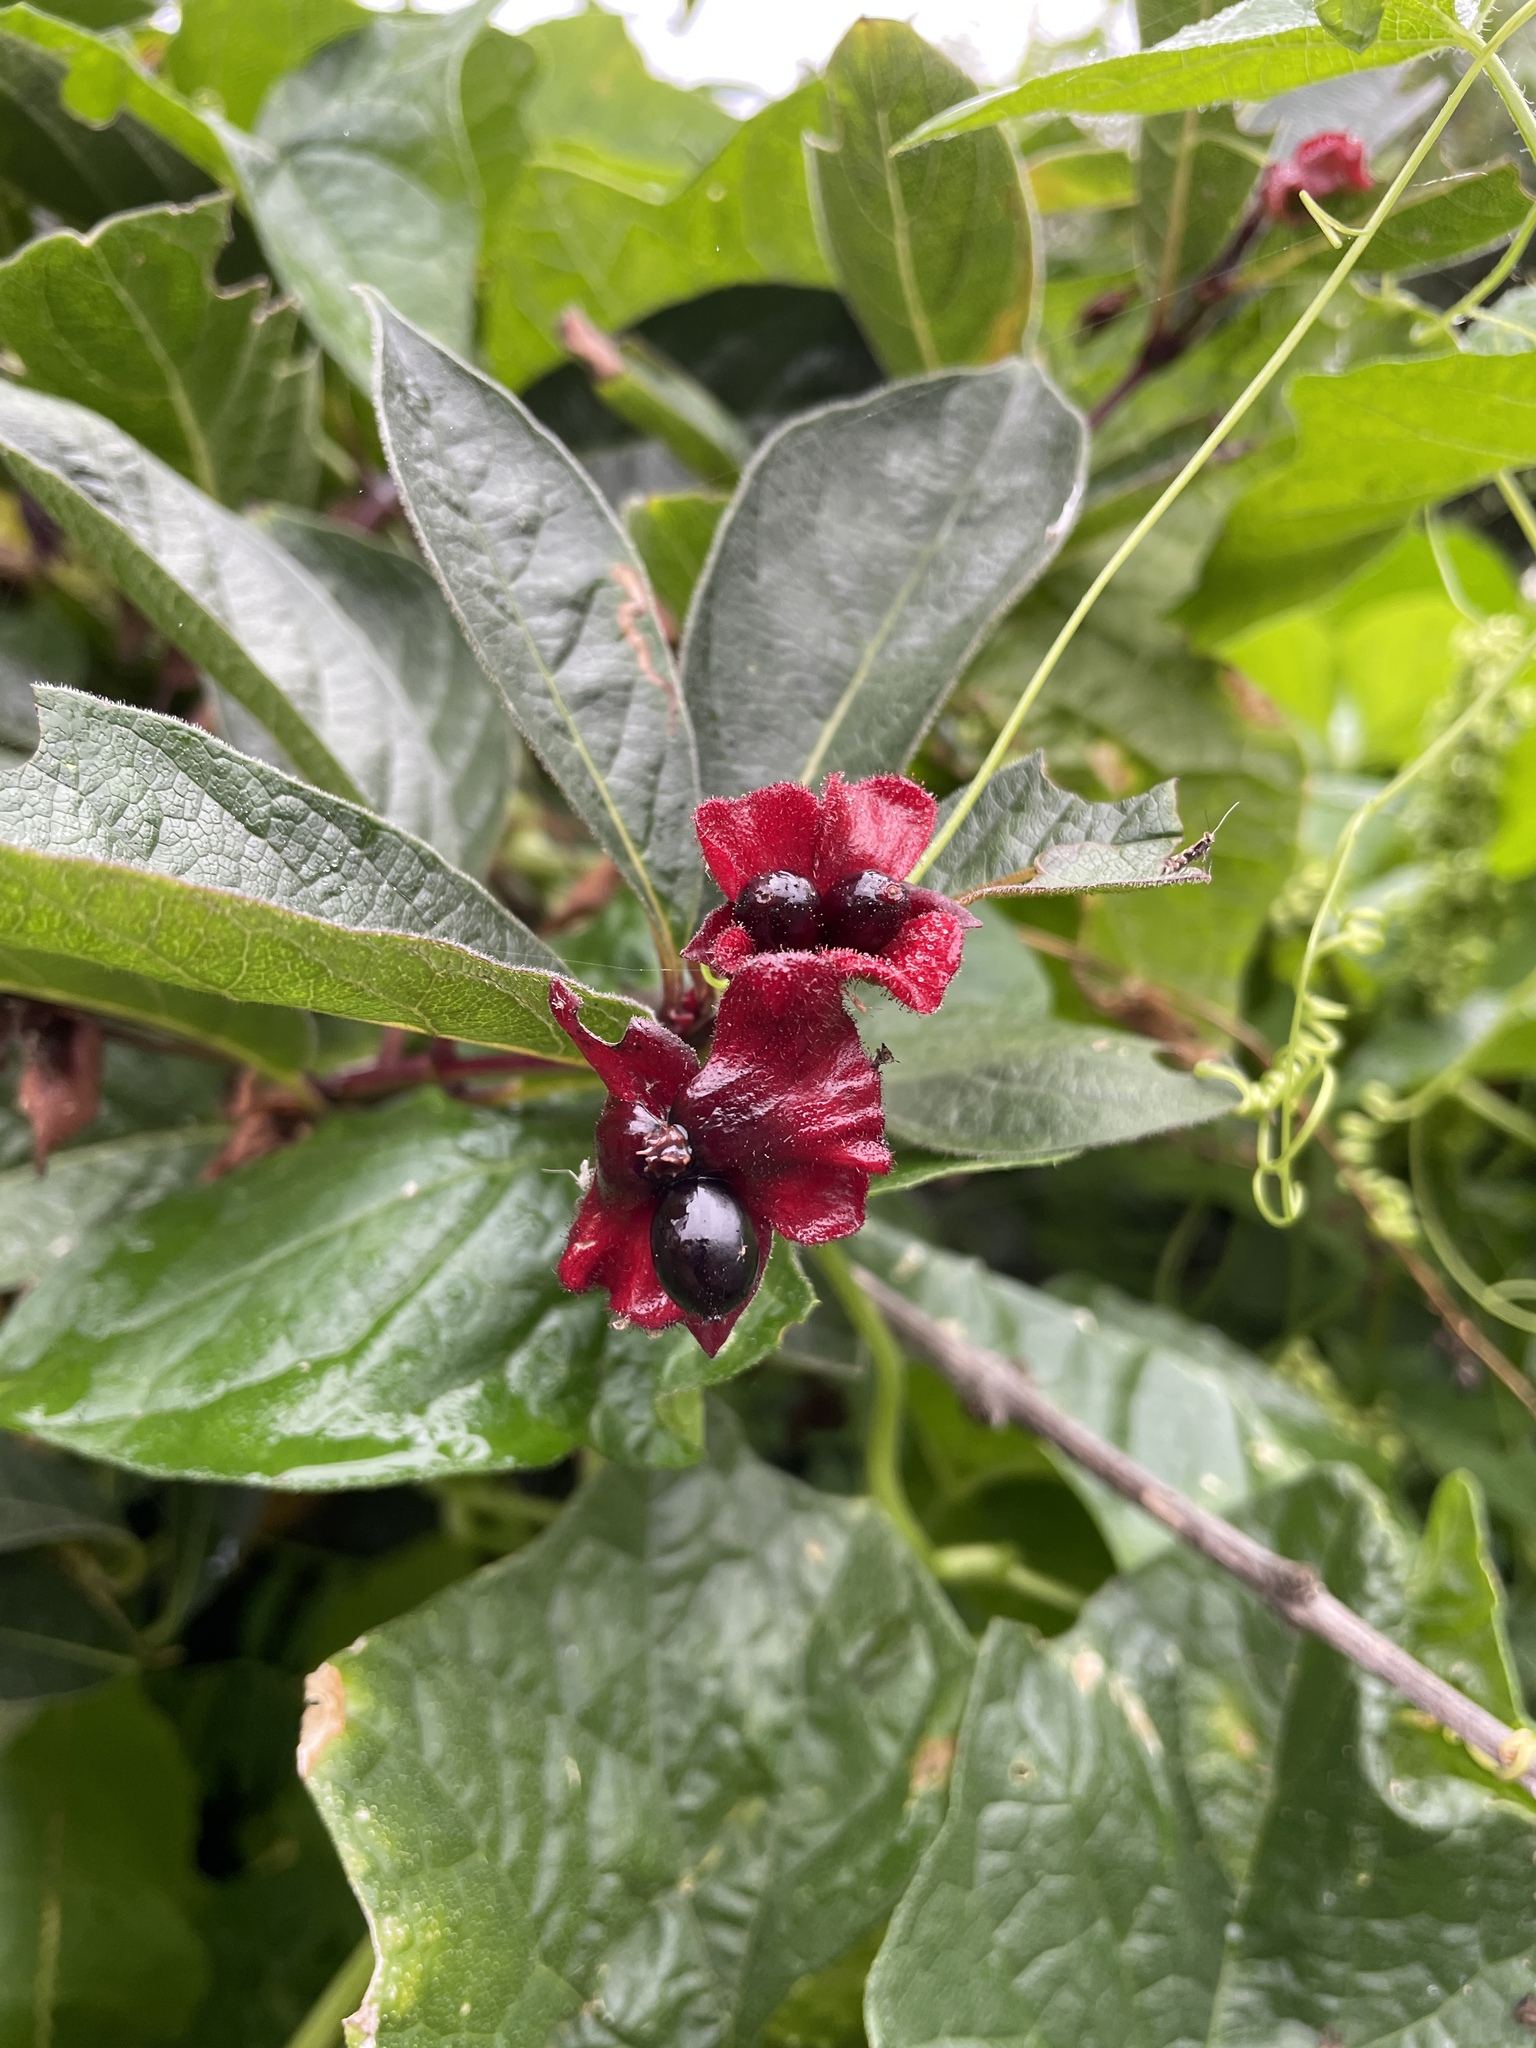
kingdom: Plantae
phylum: Tracheophyta
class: Magnoliopsida
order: Dipsacales
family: Caprifoliaceae
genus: Lonicera
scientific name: Lonicera involucrata
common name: Californian honeysuckle
